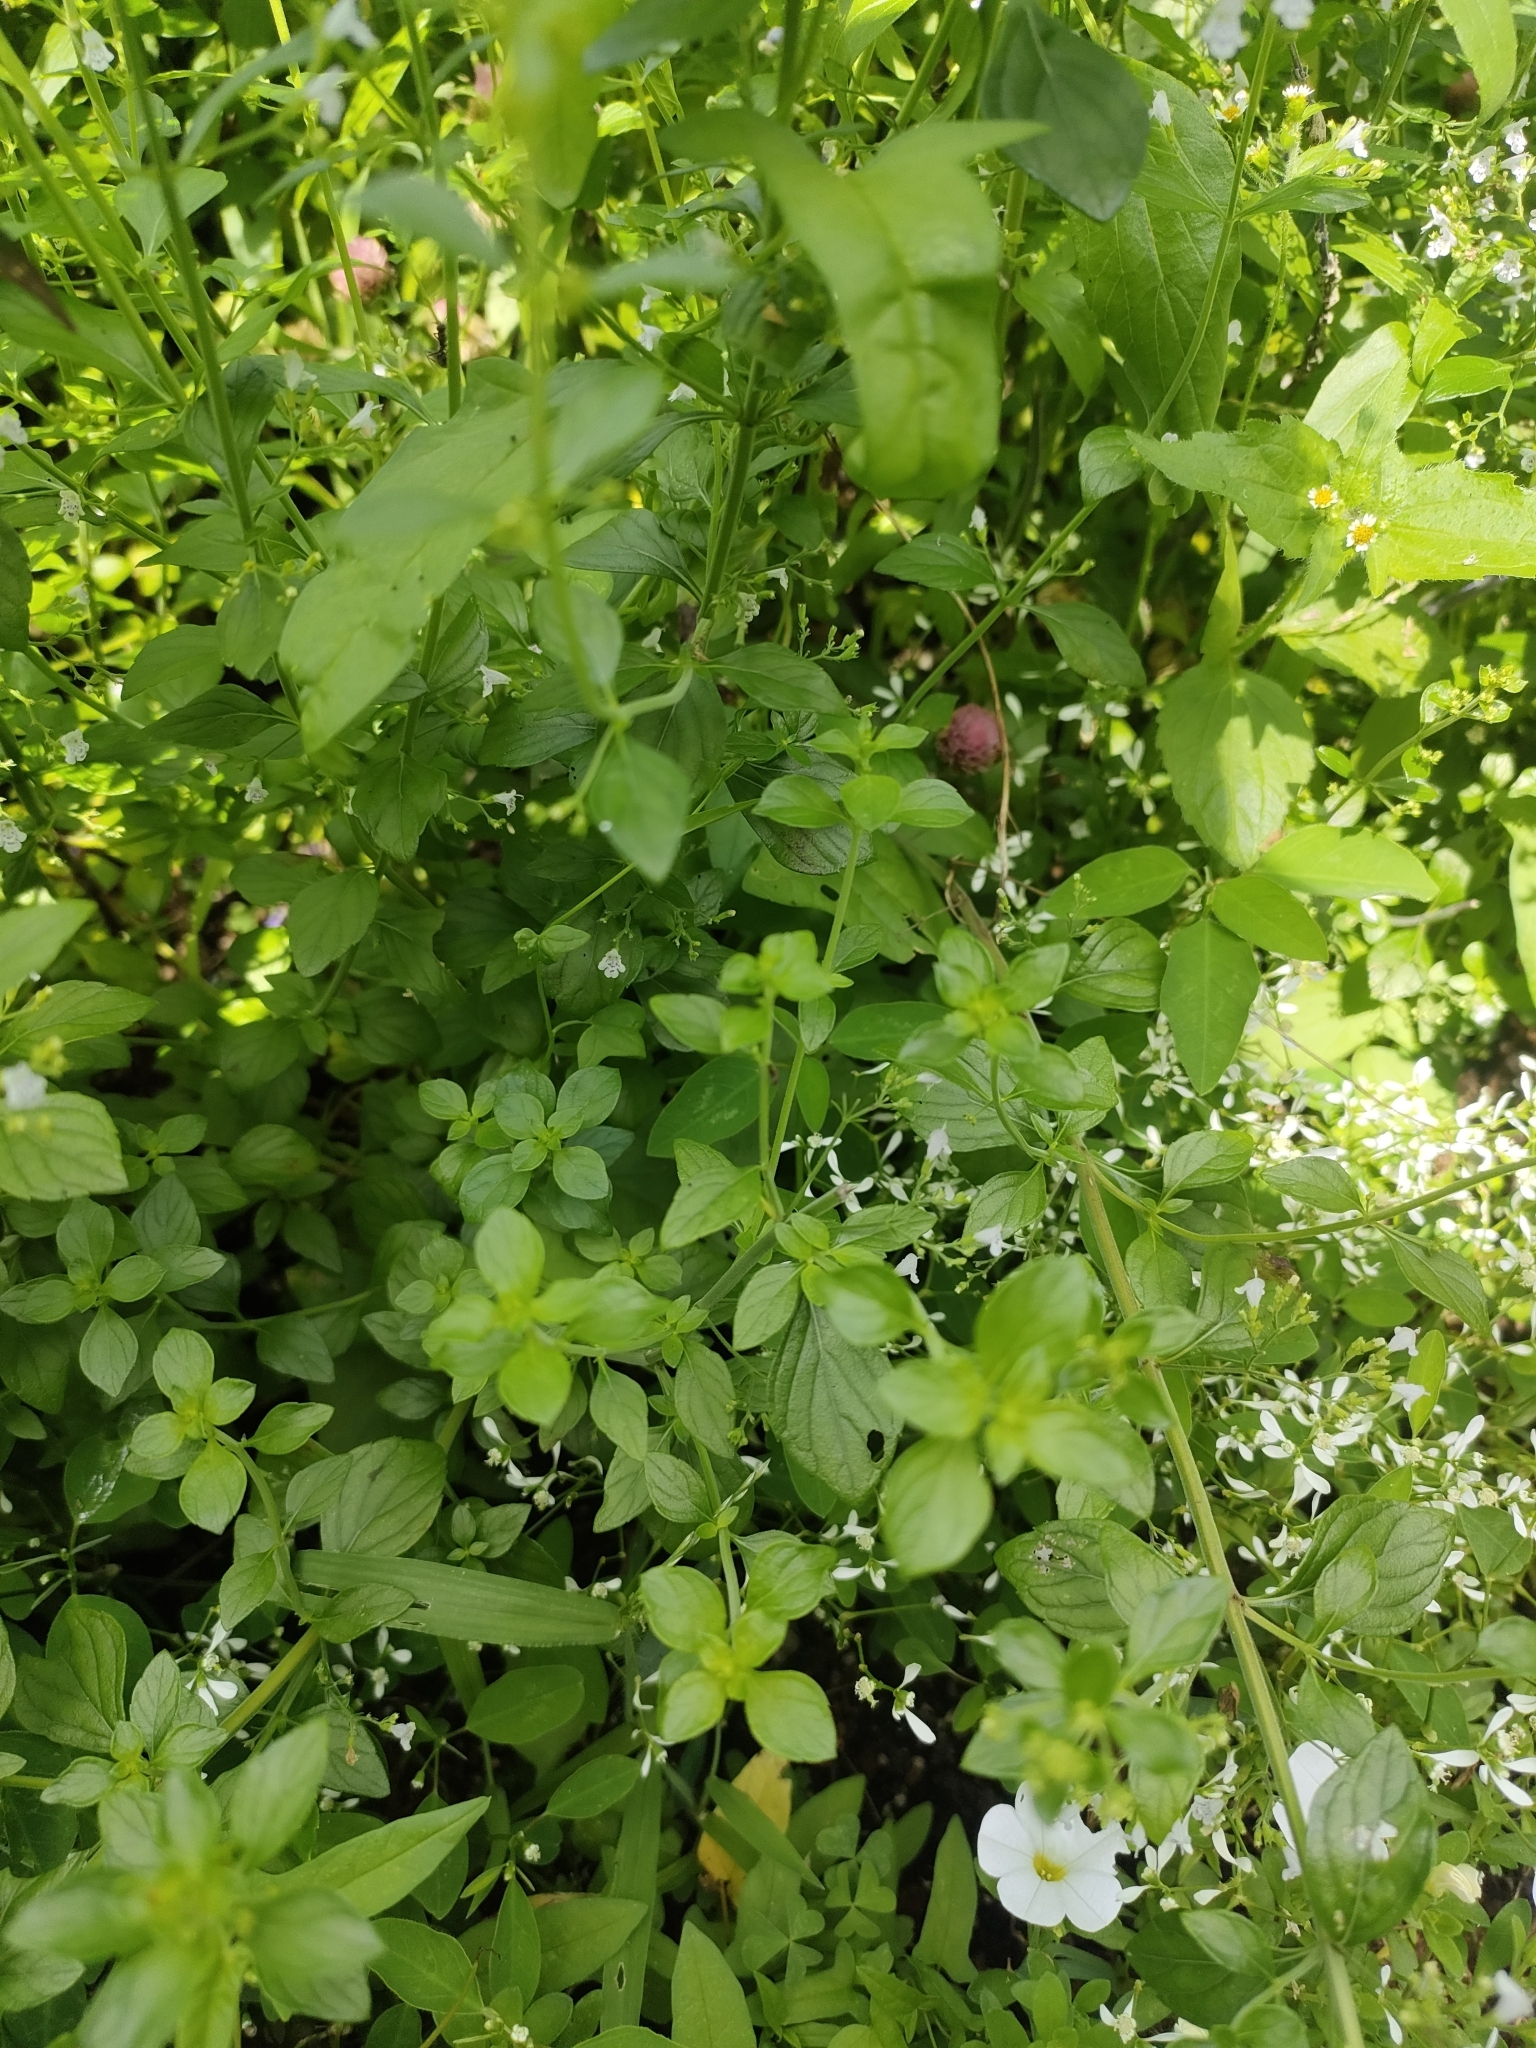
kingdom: Plantae
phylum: Tracheophyta
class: Magnoliopsida
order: Lamiales
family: Lamiaceae
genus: Clinopodium
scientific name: Clinopodium nepeta
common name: Lesser calamint
